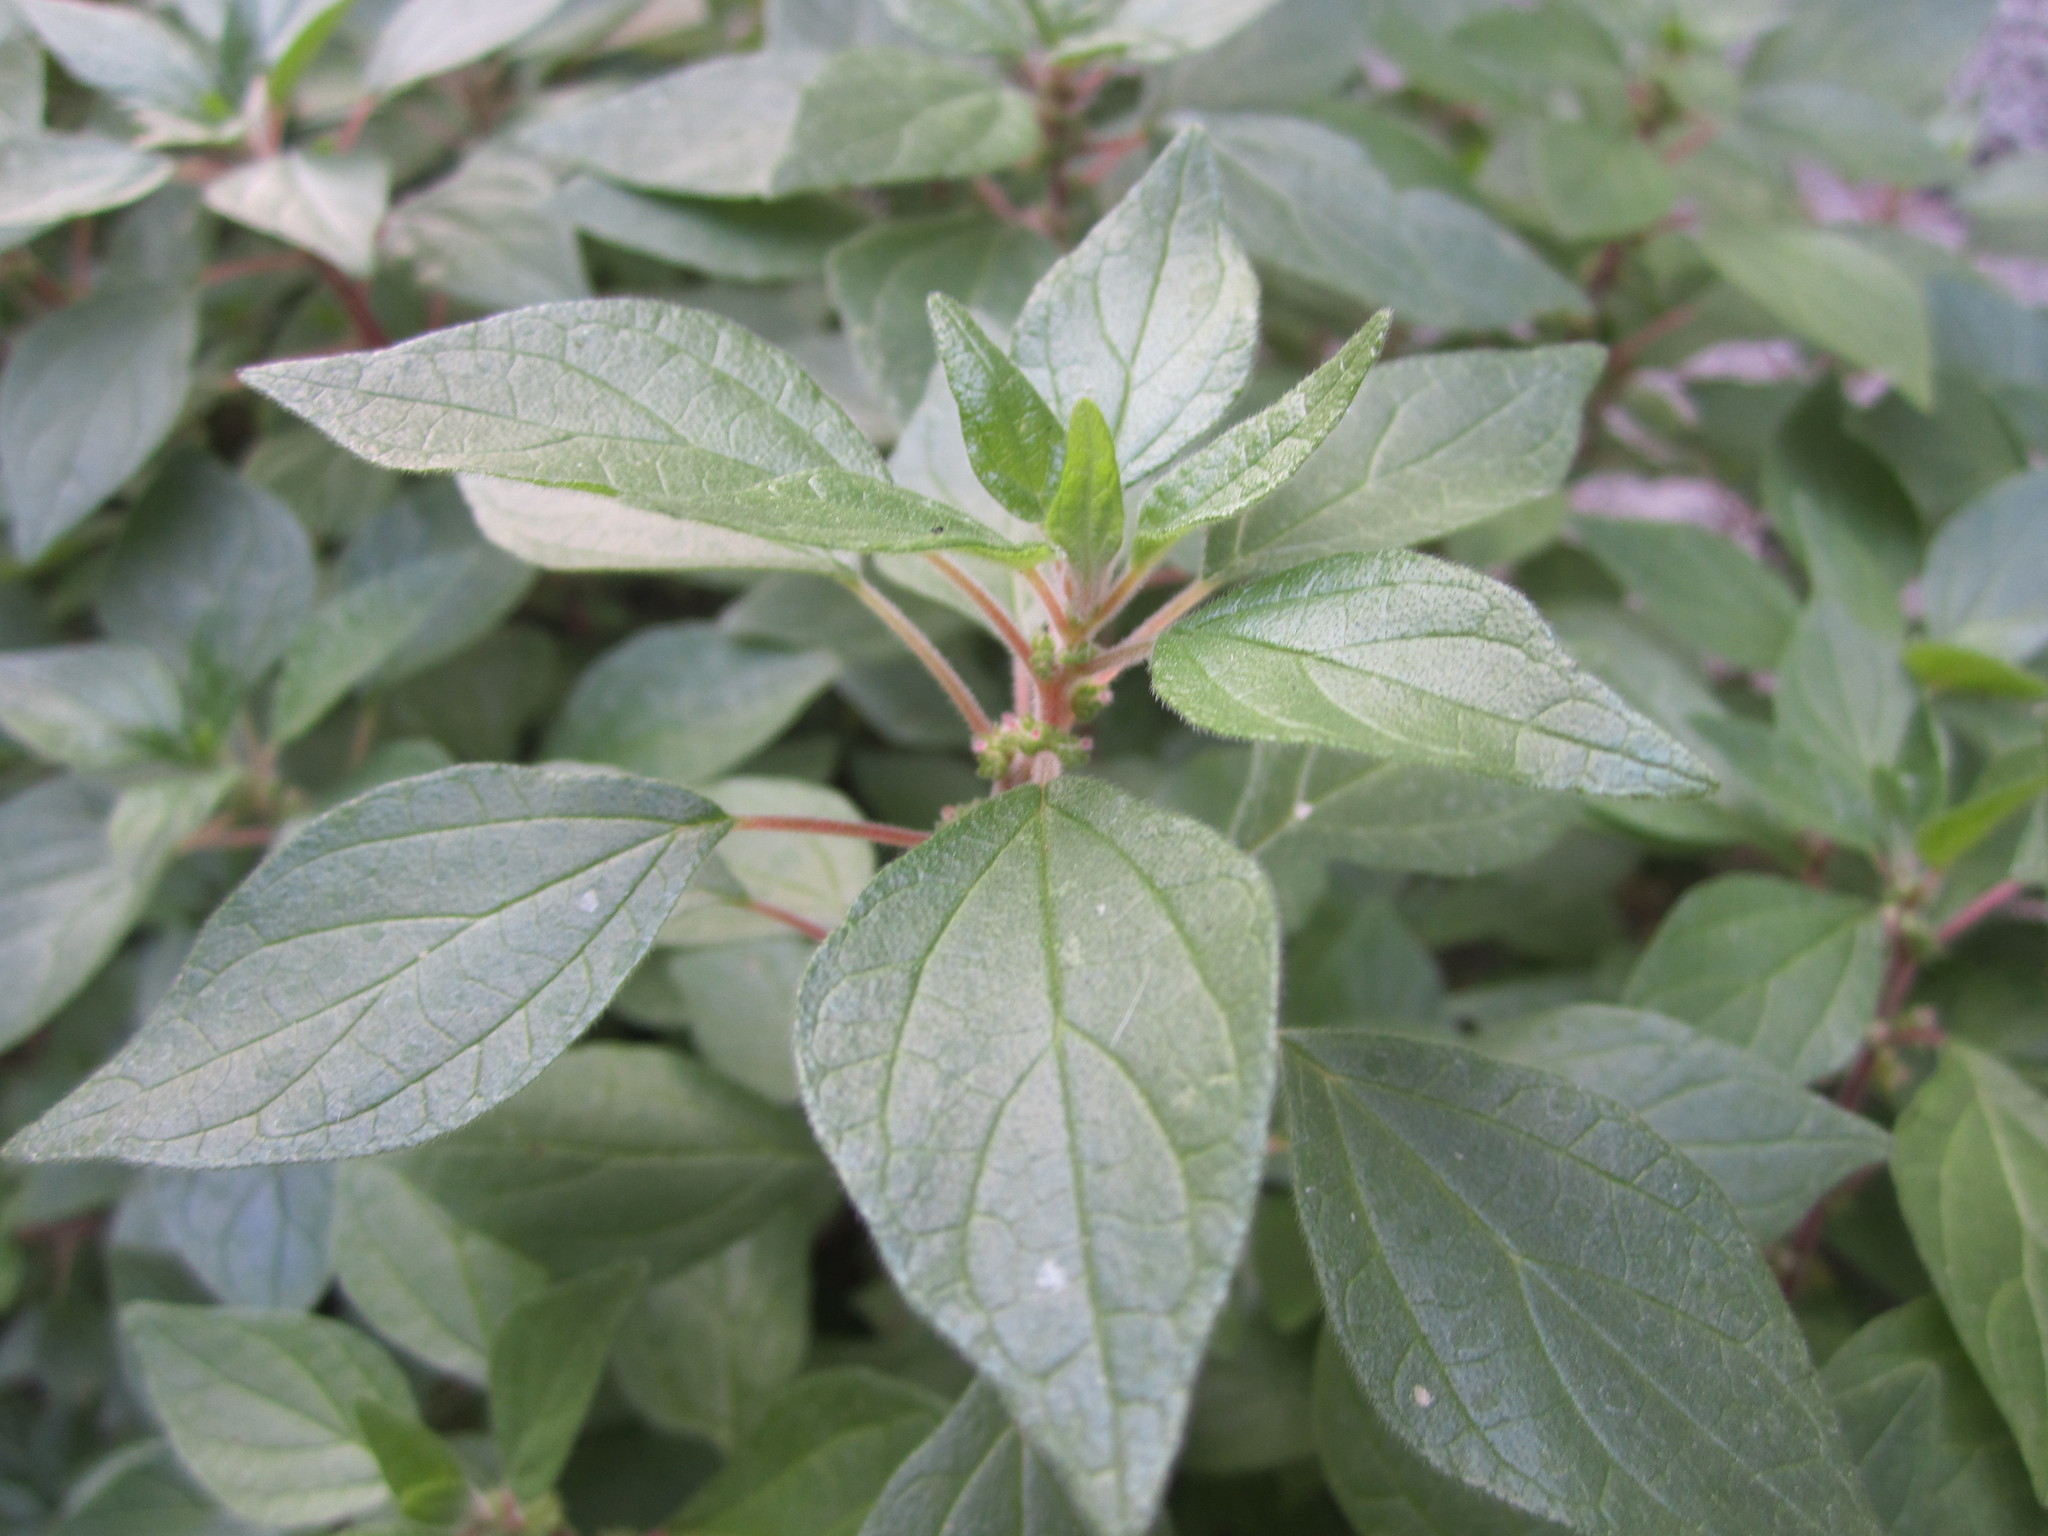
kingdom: Plantae
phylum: Tracheophyta
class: Magnoliopsida
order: Rosales
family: Urticaceae
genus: Parietaria
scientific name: Parietaria judaica
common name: Pellitory-of-the-wall
